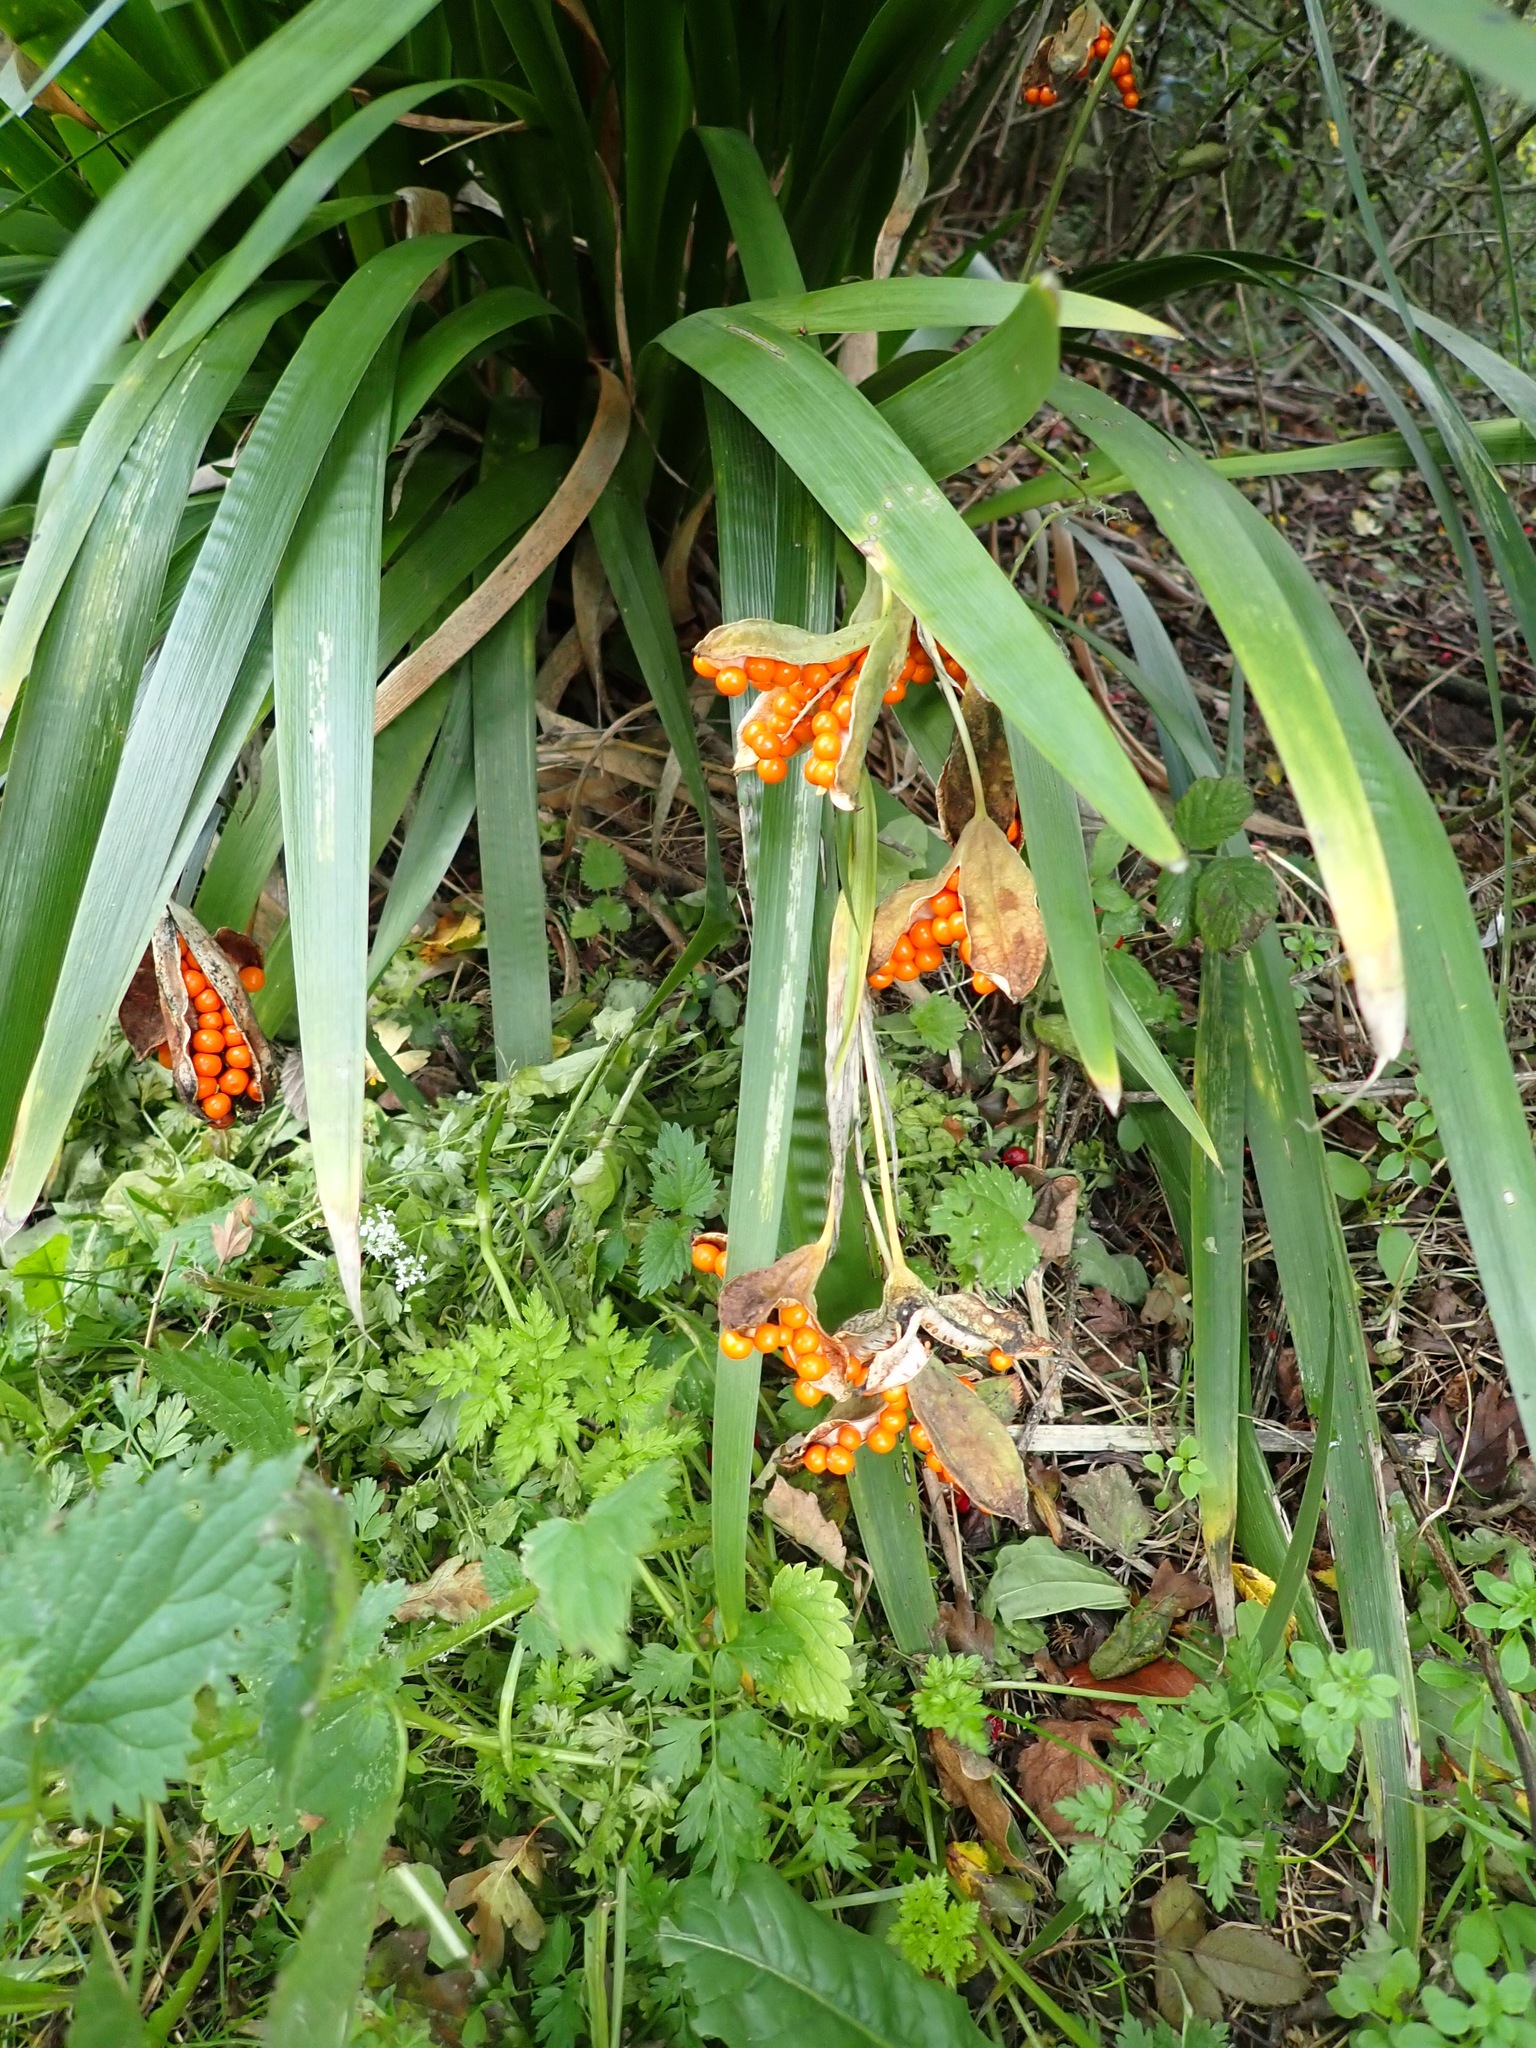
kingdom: Plantae
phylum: Tracheophyta
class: Liliopsida
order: Asparagales
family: Iridaceae
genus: Iris
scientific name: Iris foetidissima
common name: Stinking iris
